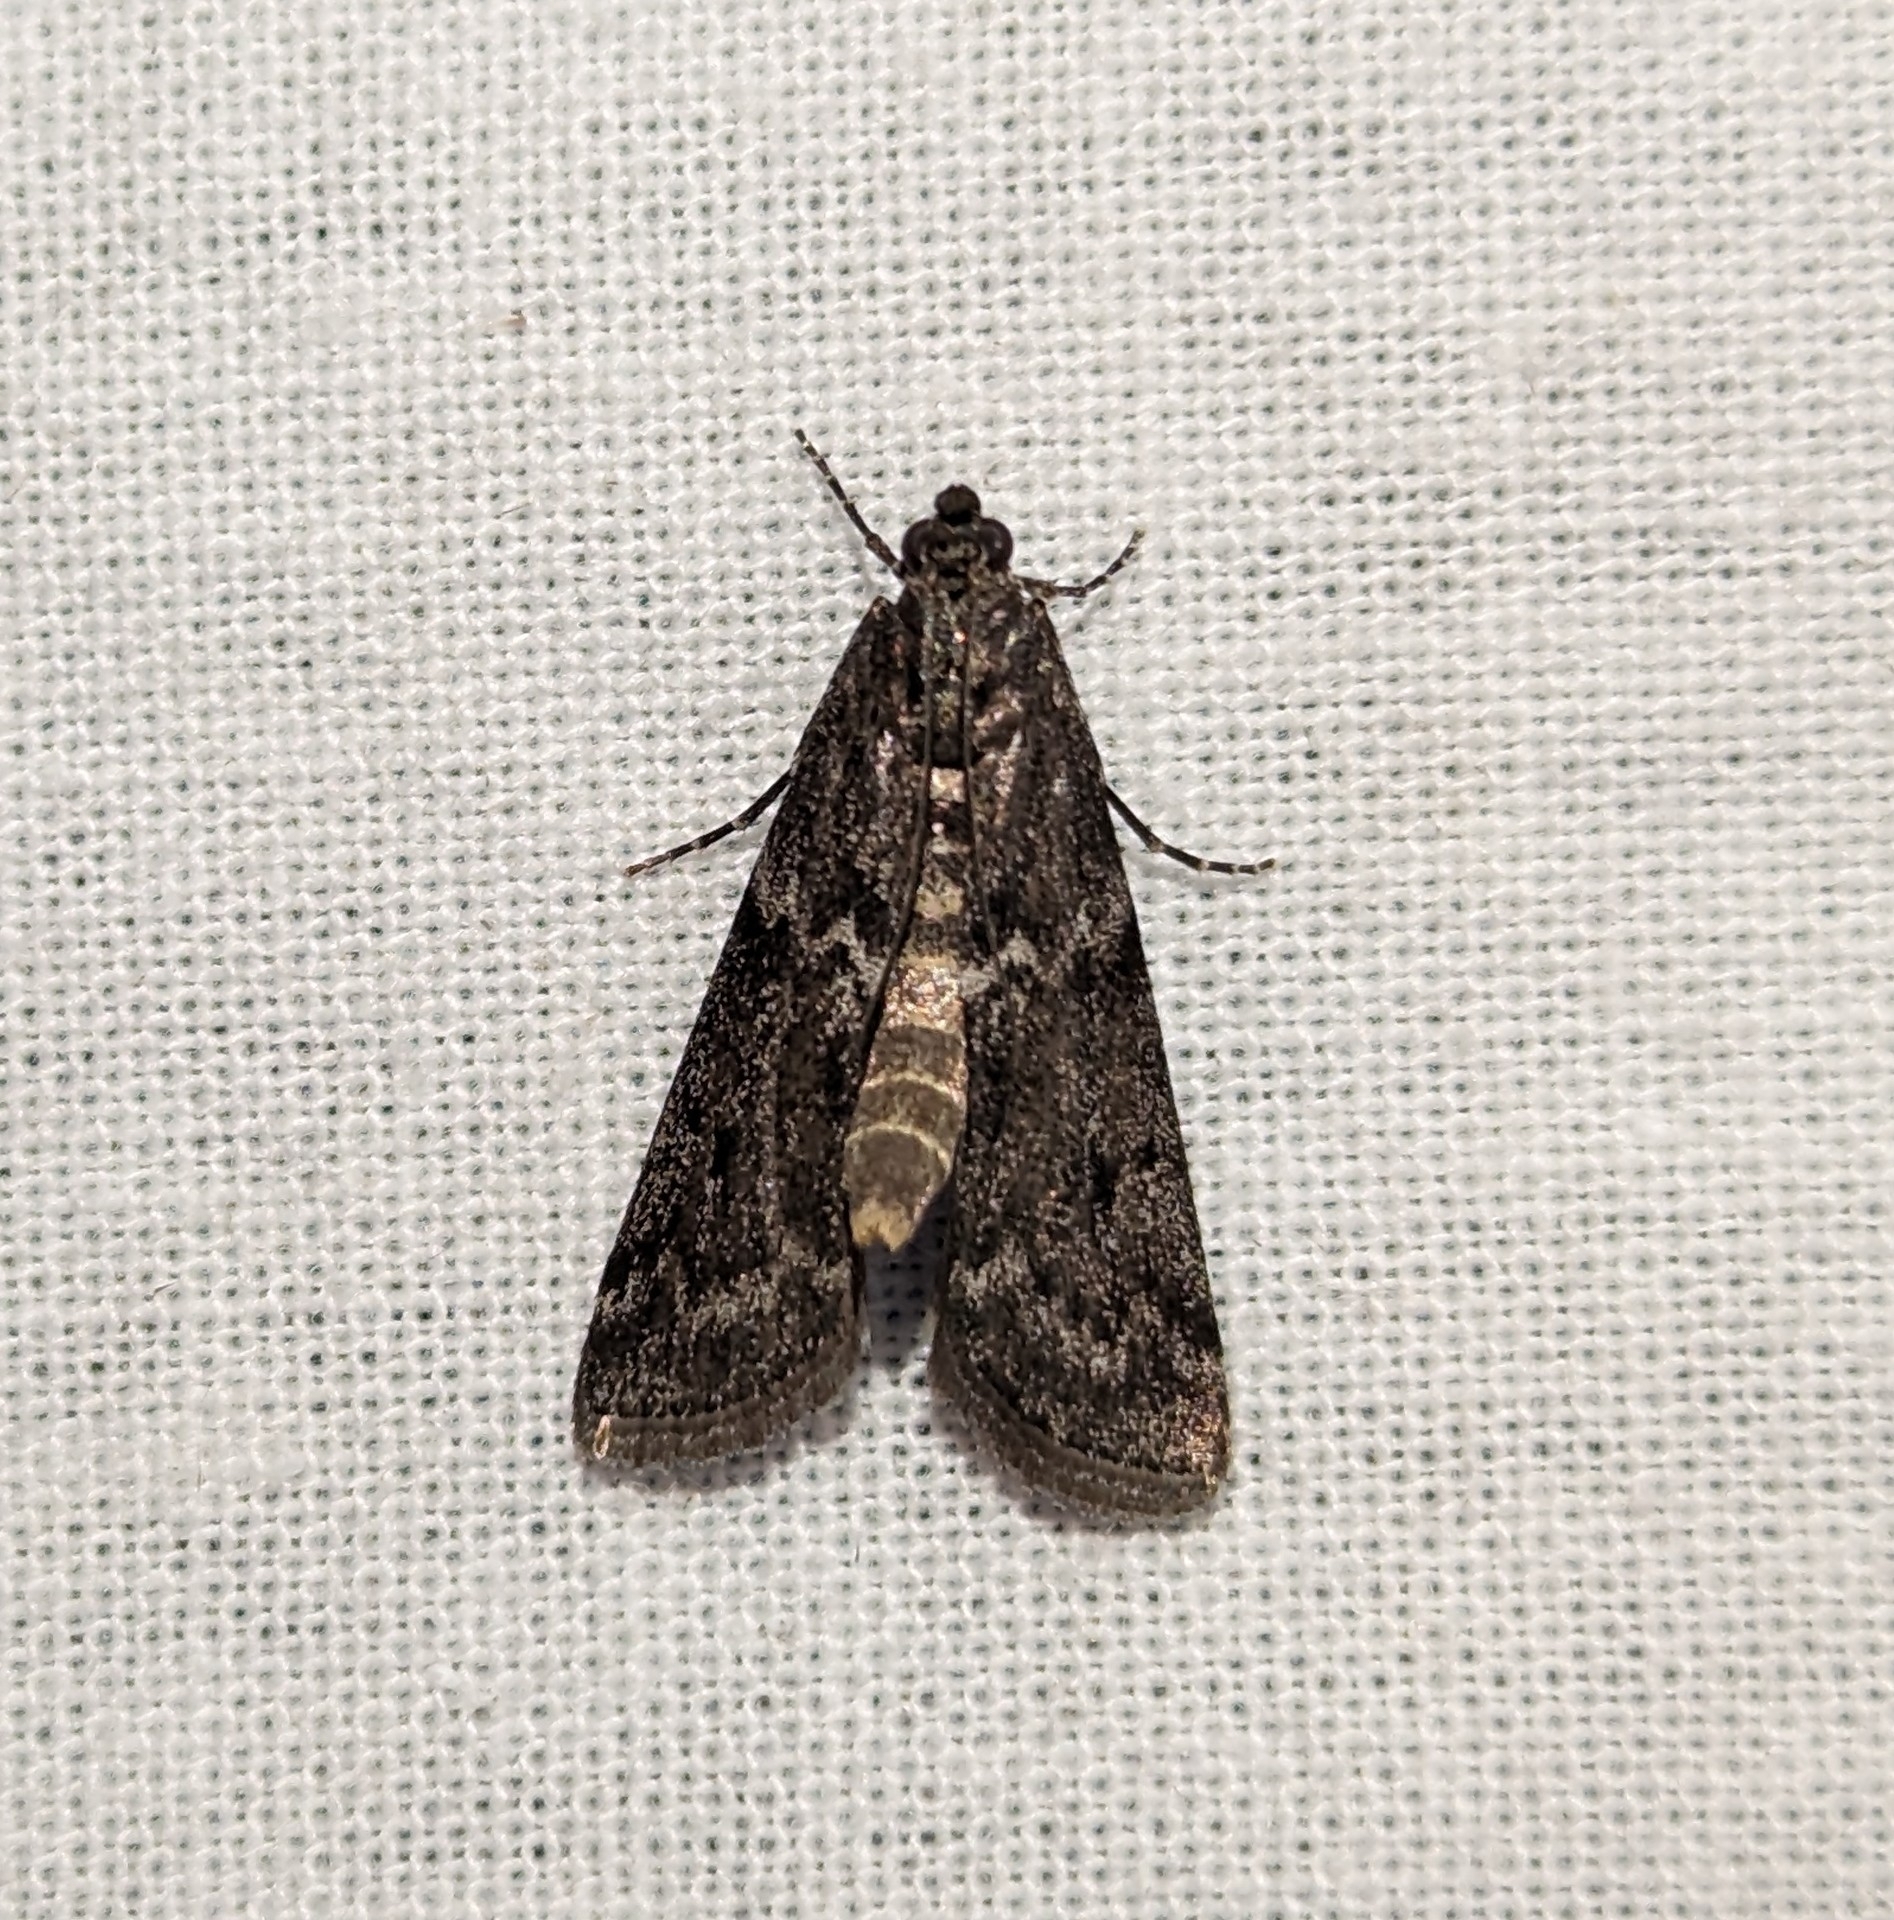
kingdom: Animalia
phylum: Arthropoda
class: Insecta
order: Lepidoptera
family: Pyralidae
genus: Pyla
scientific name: Pyla fusca
